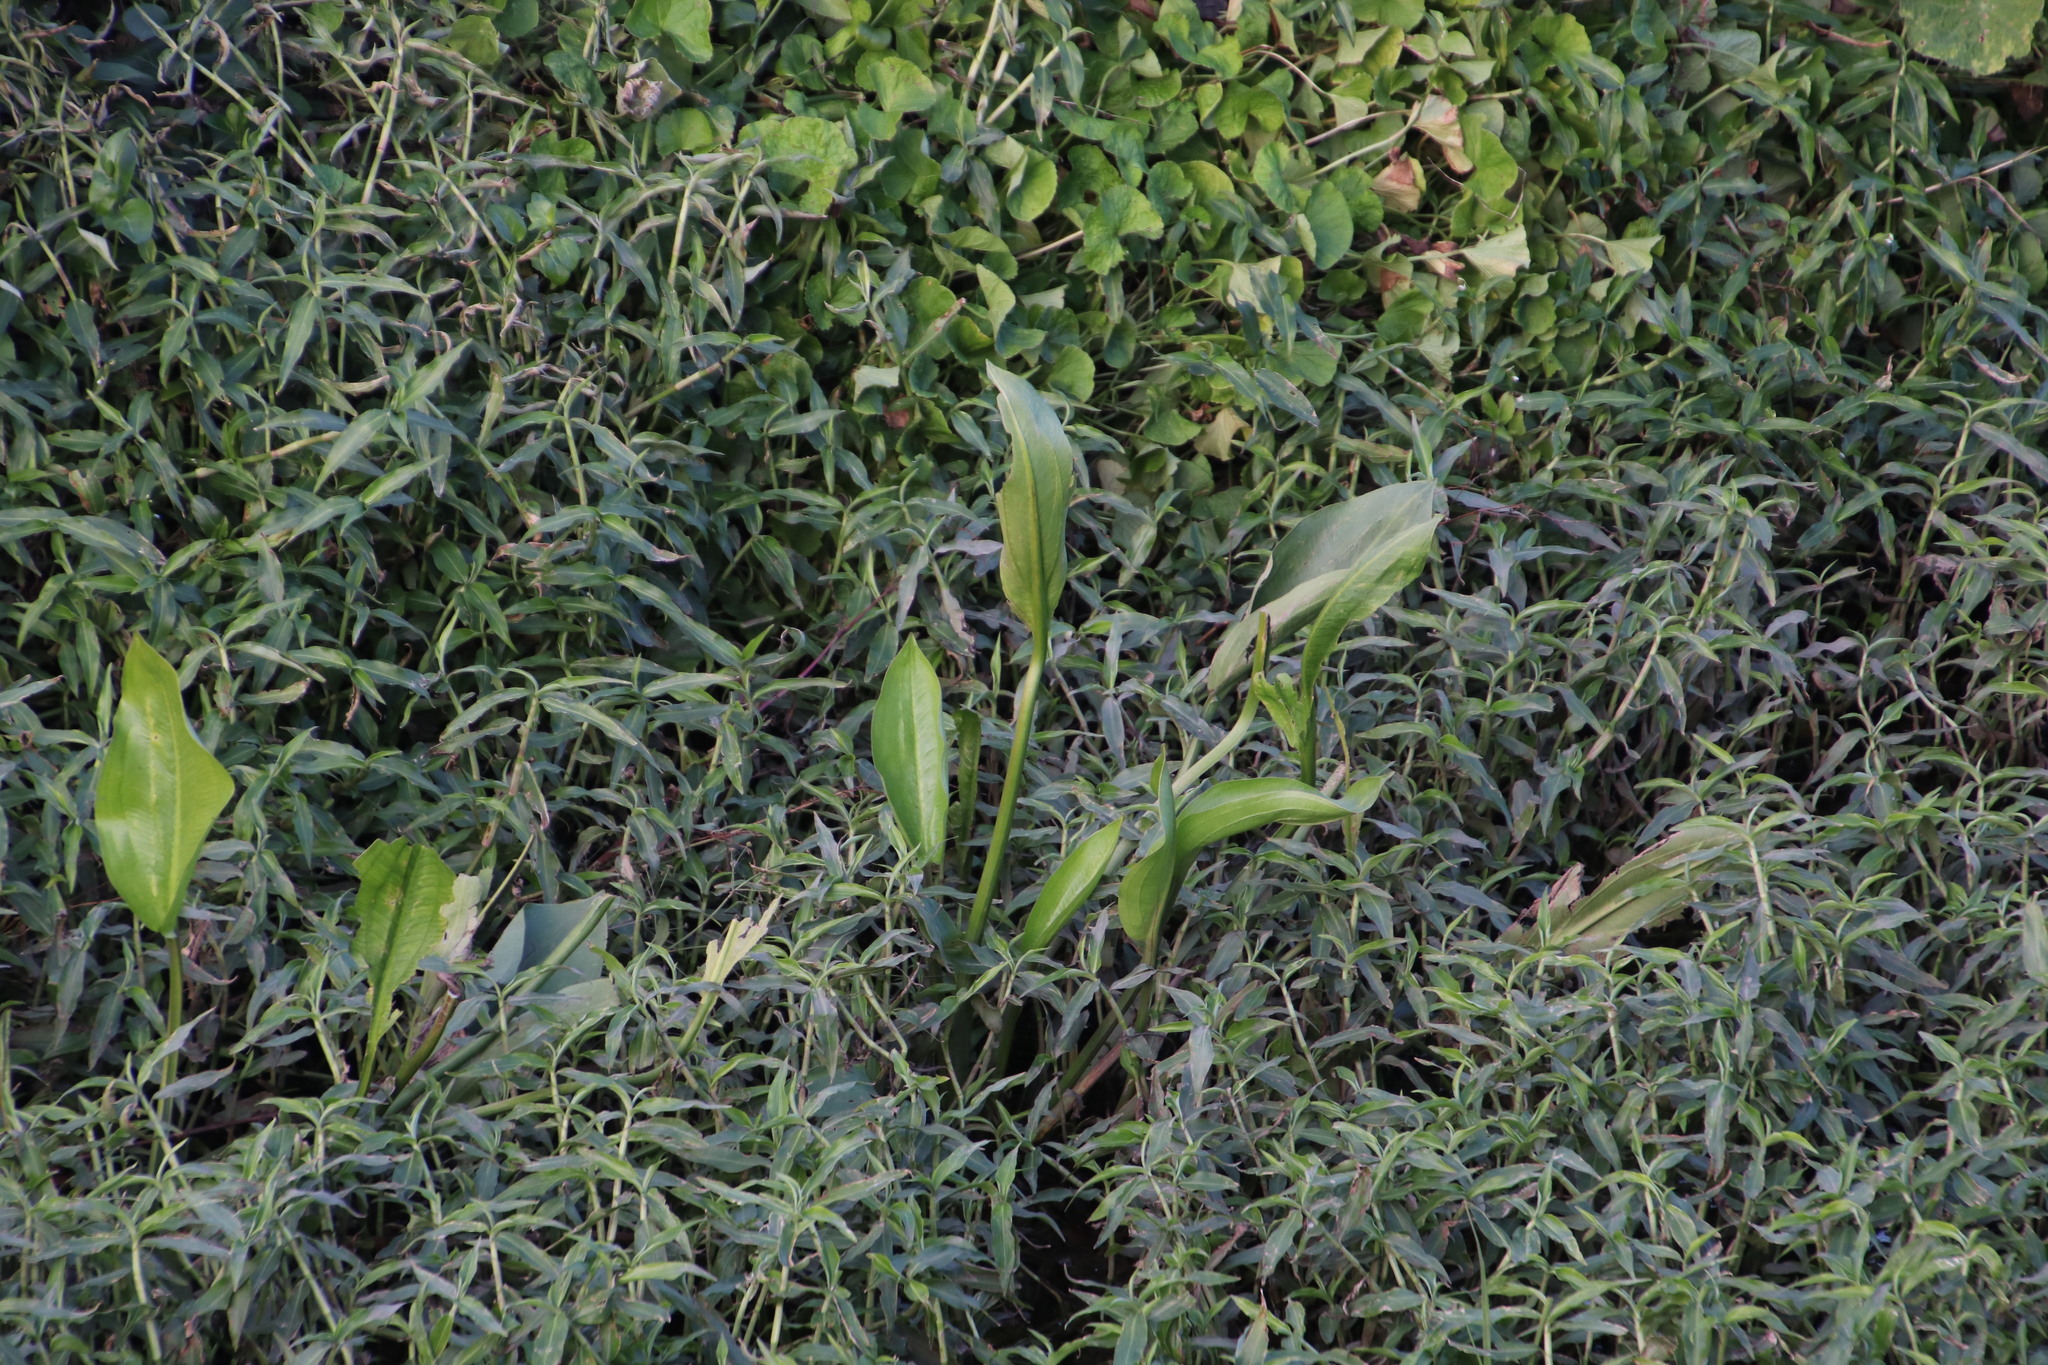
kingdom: Plantae
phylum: Tracheophyta
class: Liliopsida
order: Alismatales
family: Alismataceae
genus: Alisma
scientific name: Alisma plantago-aquatica
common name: Water-plantain
